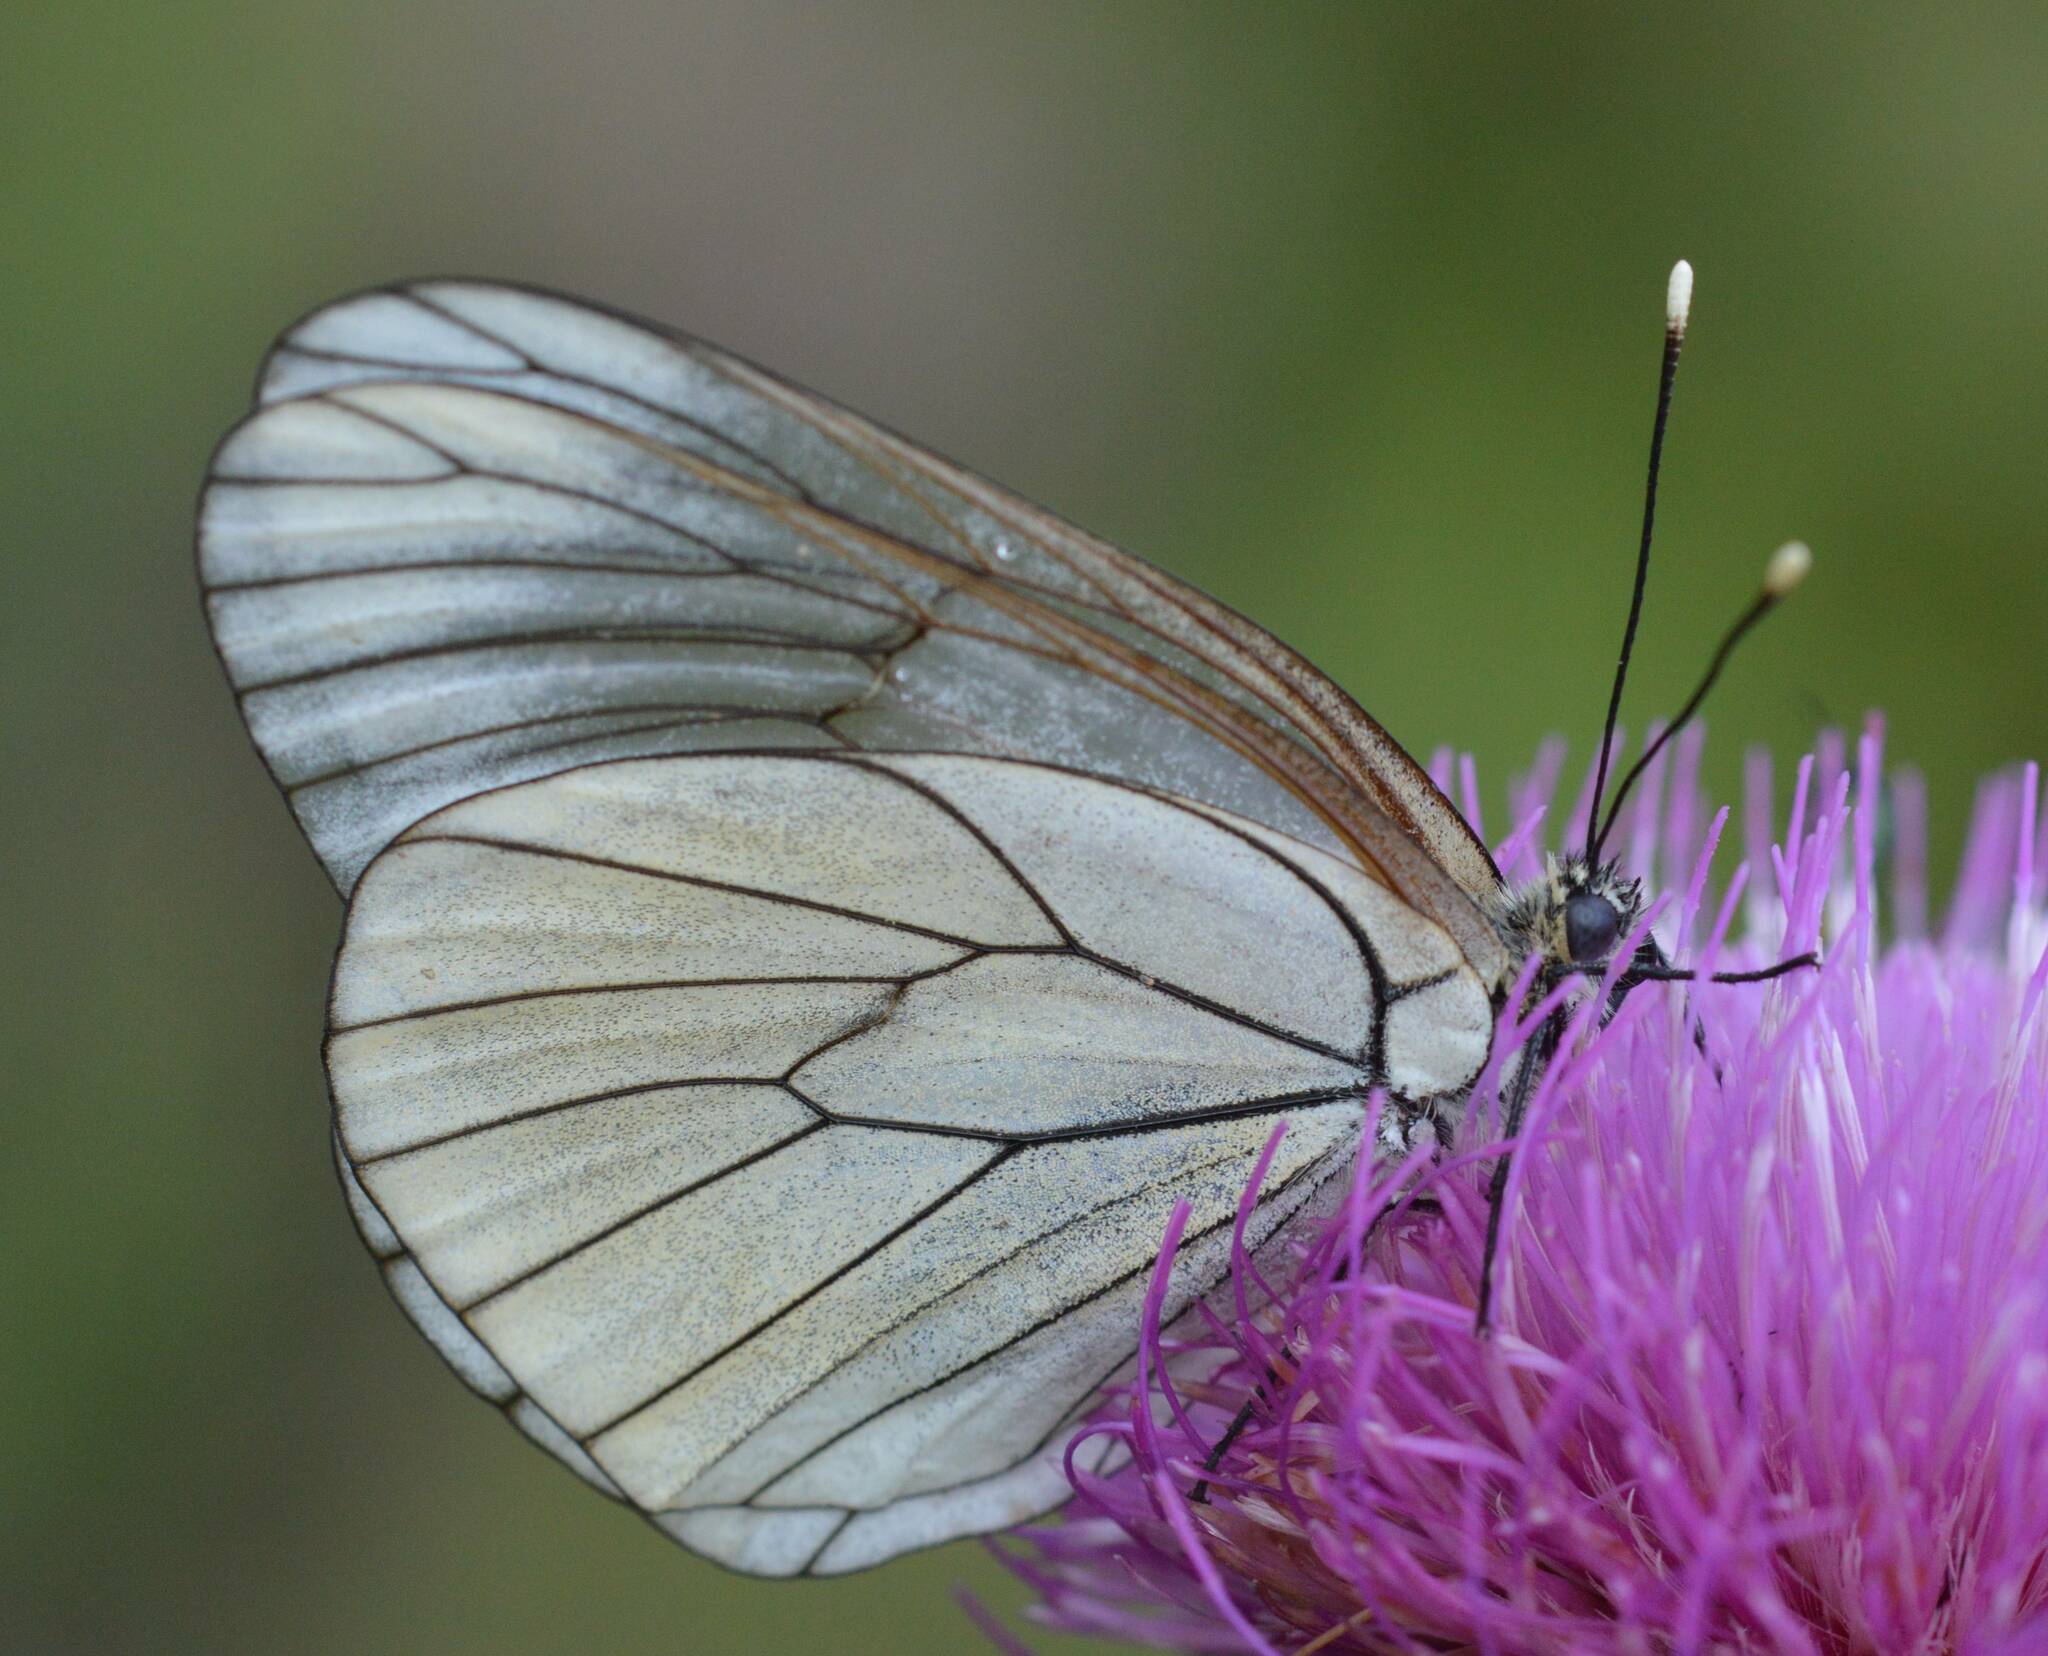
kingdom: Animalia
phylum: Arthropoda
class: Insecta
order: Lepidoptera
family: Pieridae
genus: Aporia
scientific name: Aporia crataegi
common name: Black-veined white
